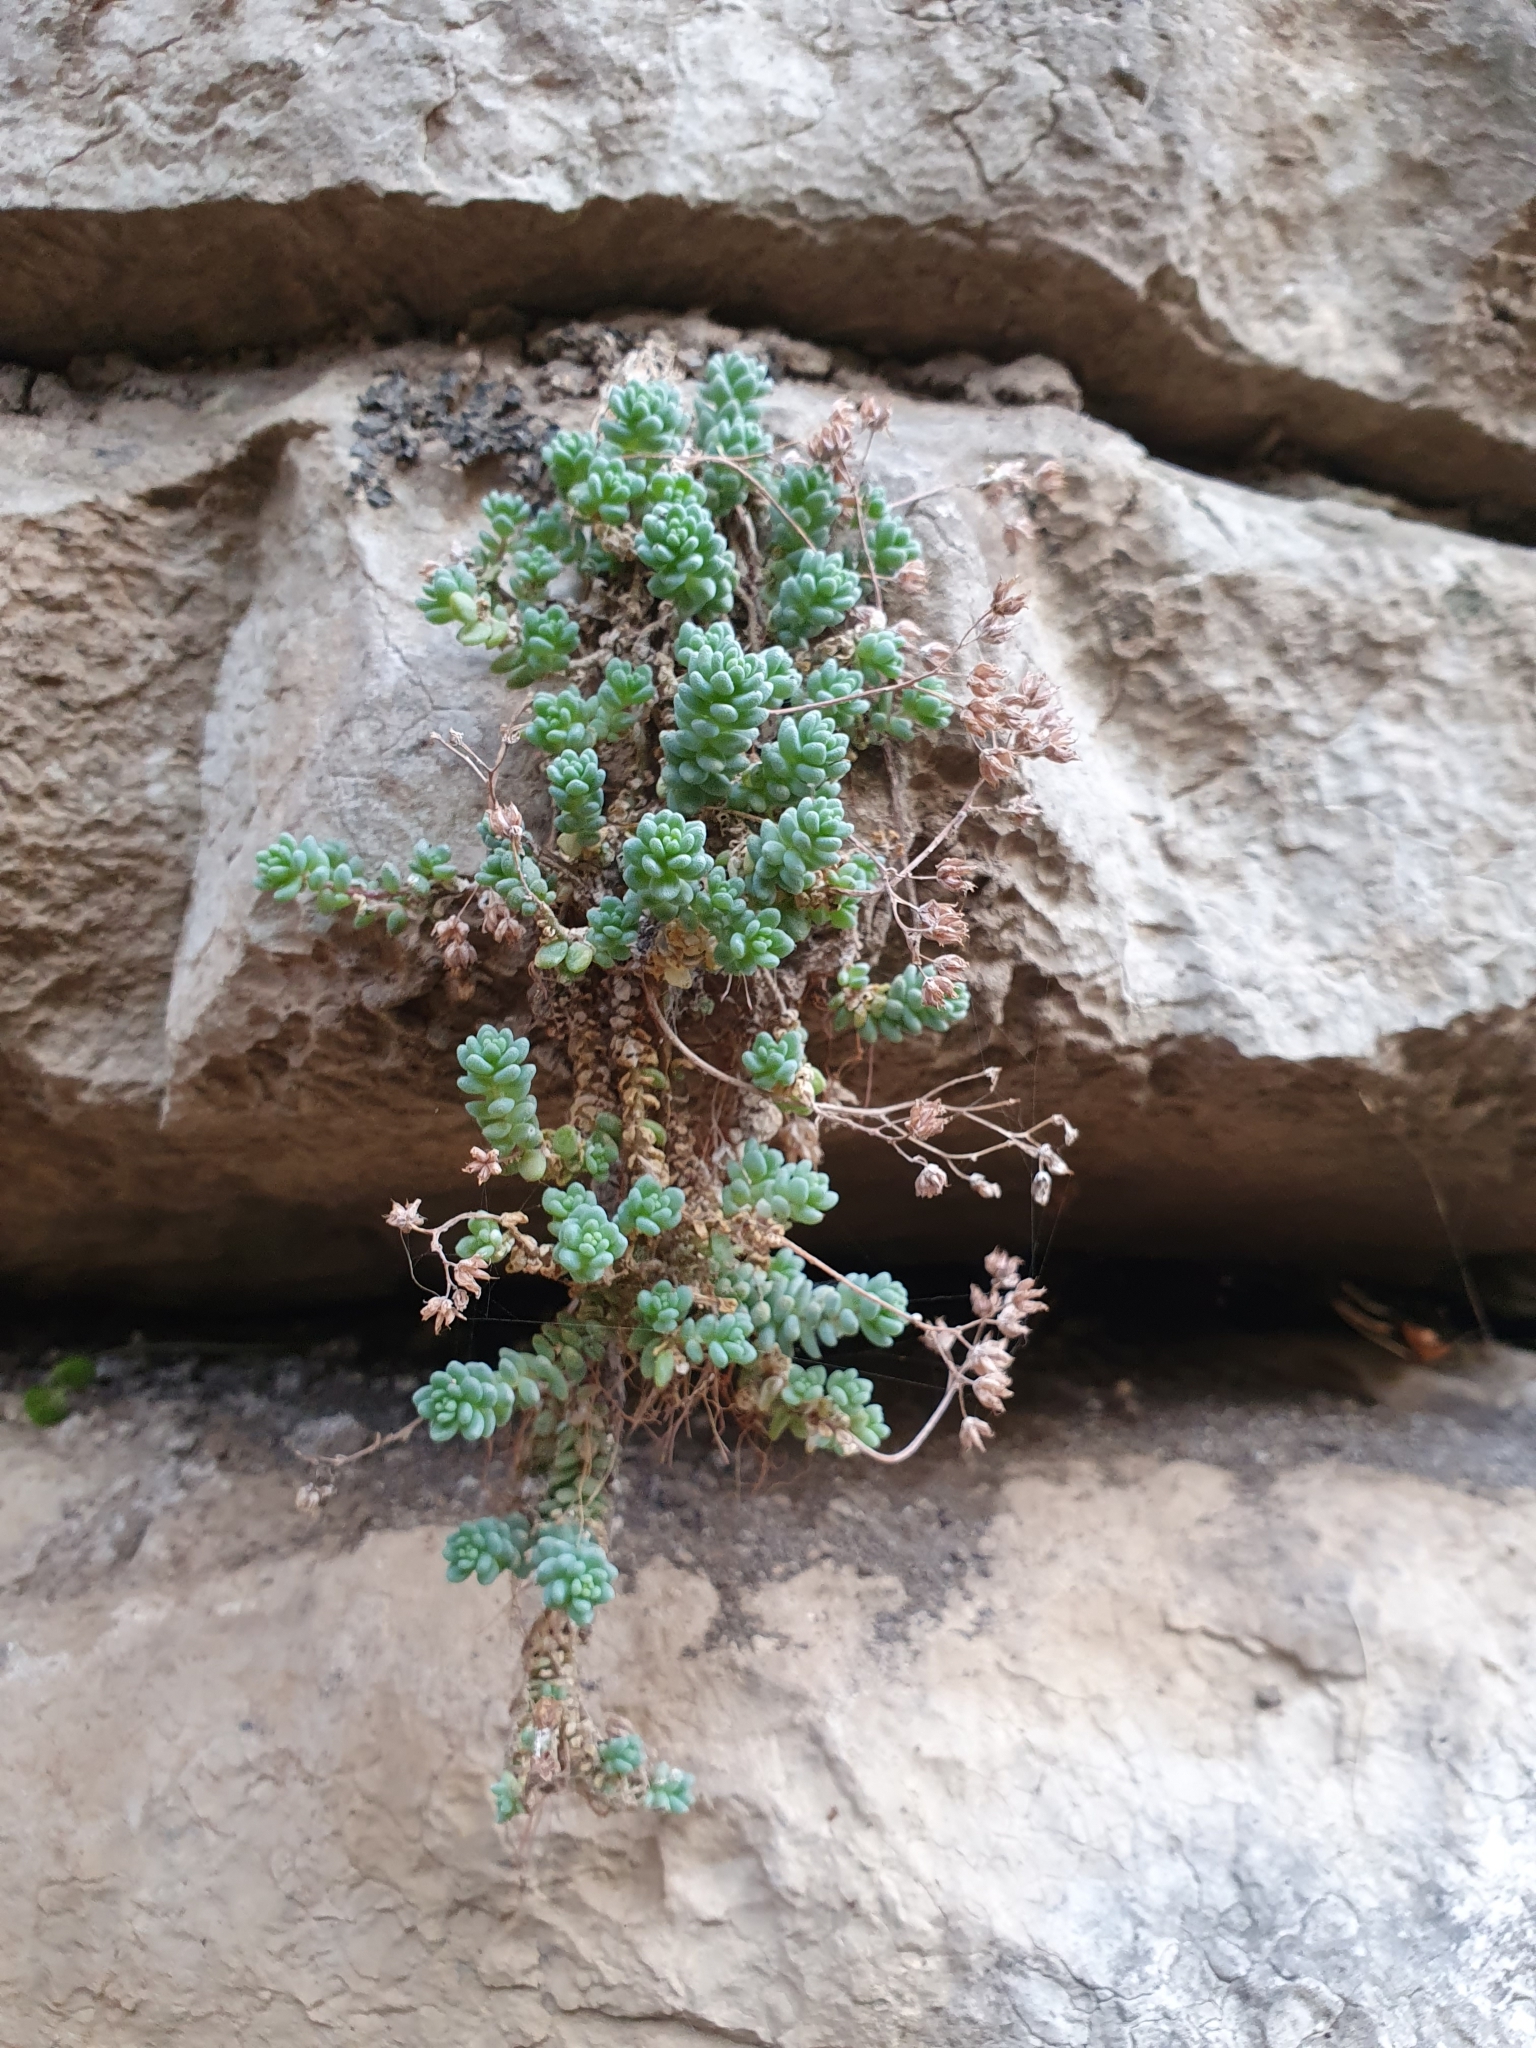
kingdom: Plantae
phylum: Tracheophyta
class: Magnoliopsida
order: Saxifragales
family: Crassulaceae
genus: Sedum
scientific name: Sedum dasyphyllum
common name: Thick-leaf stonecrop
